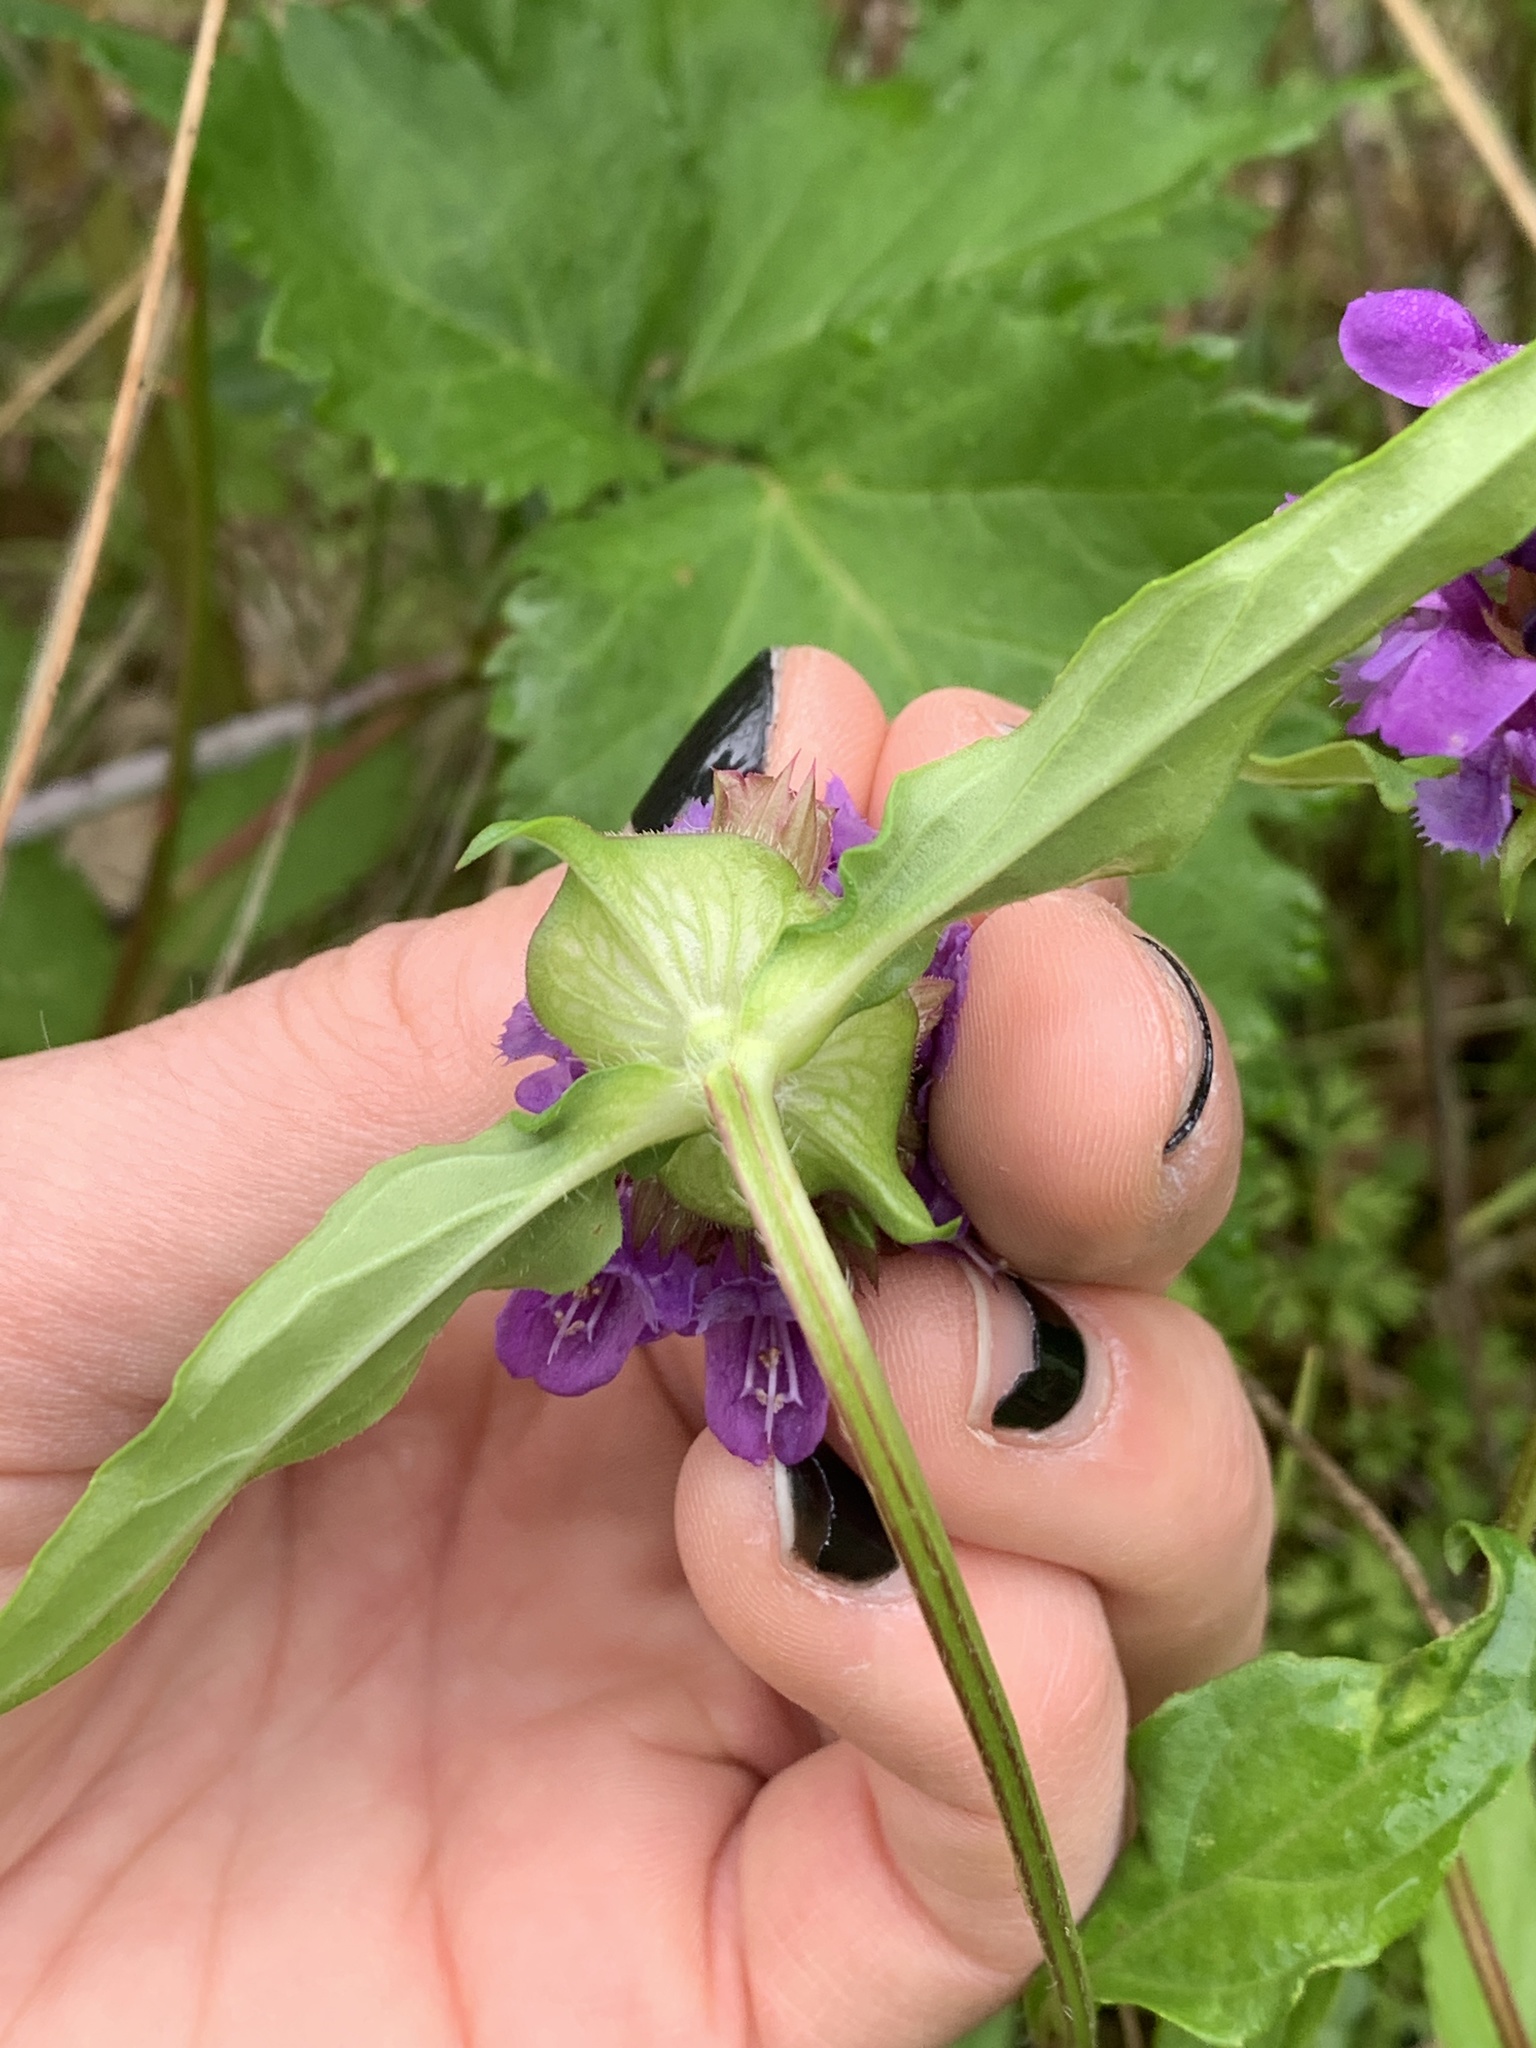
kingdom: Plantae
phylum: Tracheophyta
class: Magnoliopsida
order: Lamiales
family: Lamiaceae
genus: Prunella
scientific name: Prunella vulgaris
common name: Heal-all
